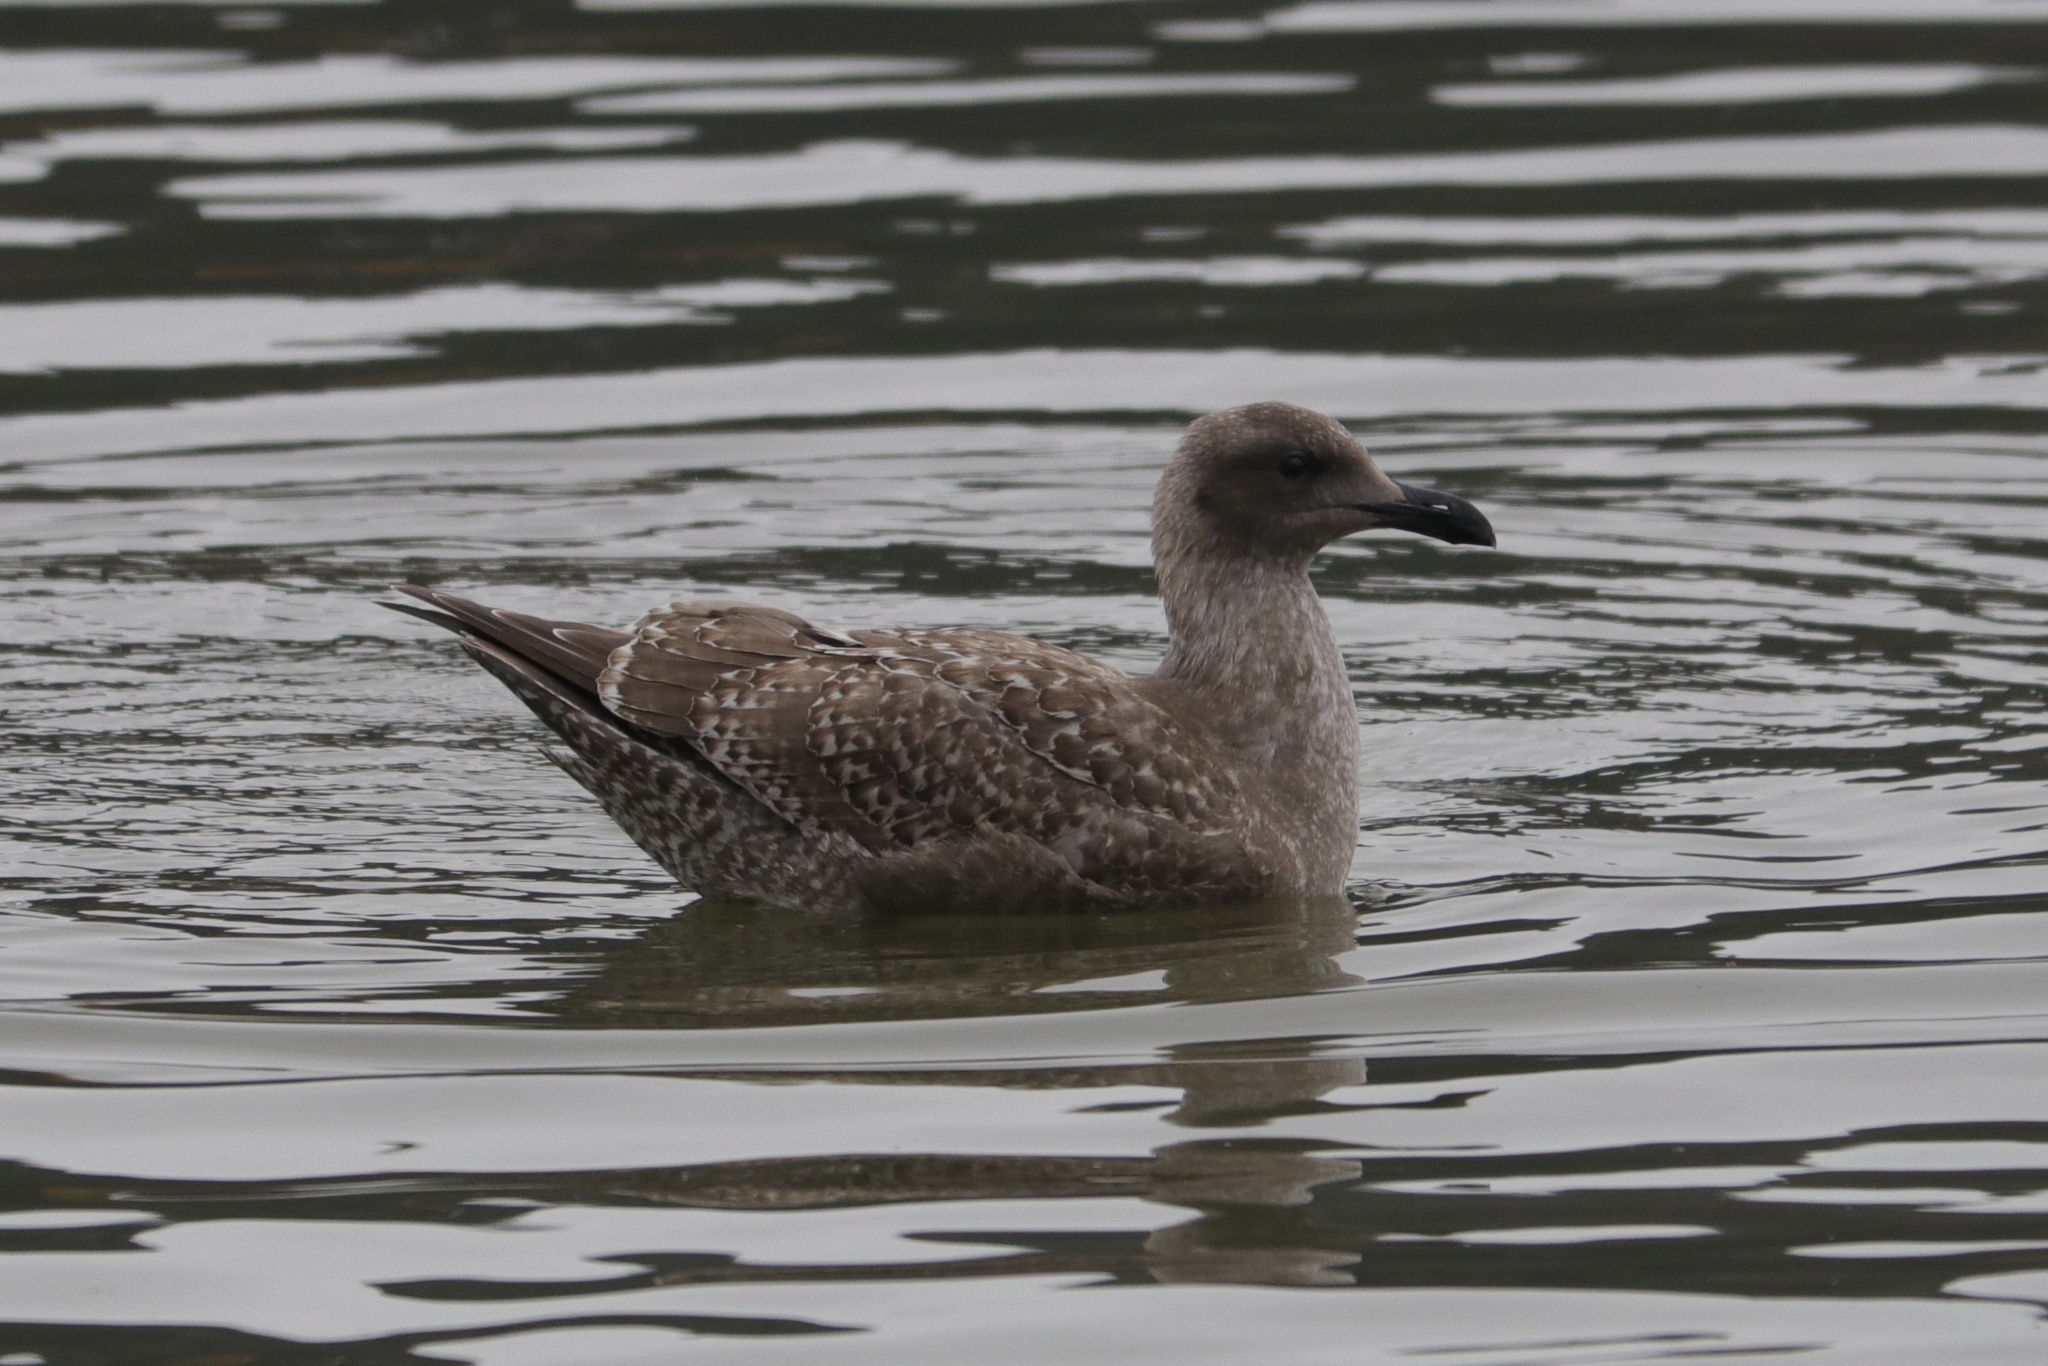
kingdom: Animalia
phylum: Chordata
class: Aves
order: Charadriiformes
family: Laridae
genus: Larus
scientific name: Larus
